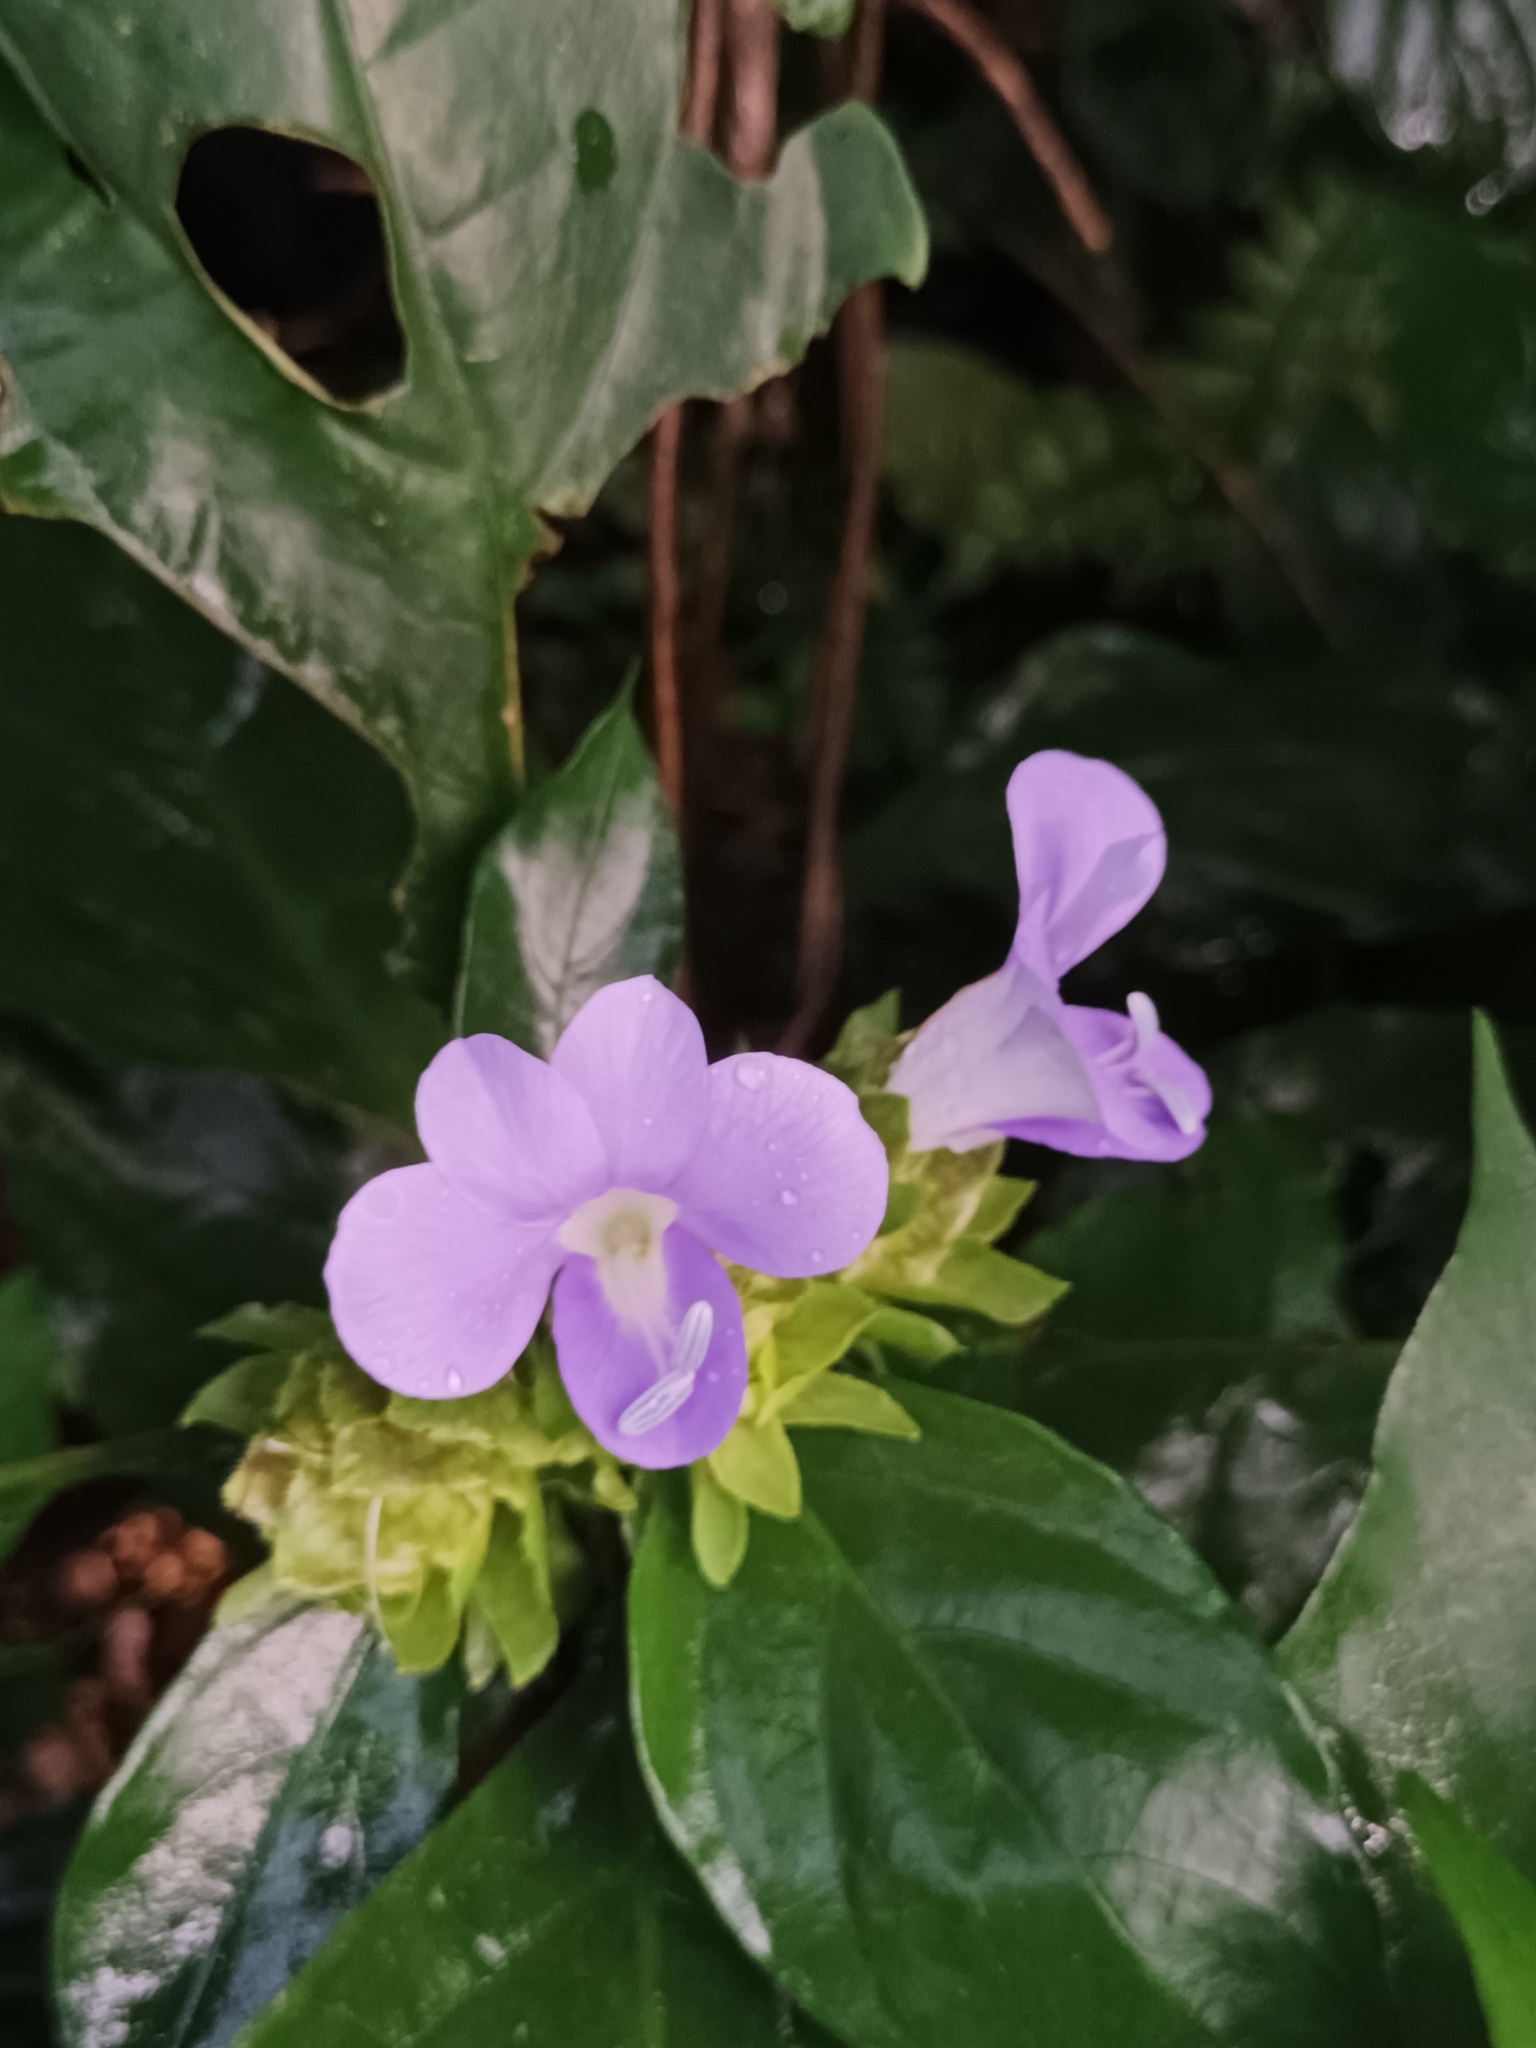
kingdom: Plantae
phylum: Tracheophyta
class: Magnoliopsida
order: Lamiales
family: Acanthaceae
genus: Barleria
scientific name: Barleria strigosa
